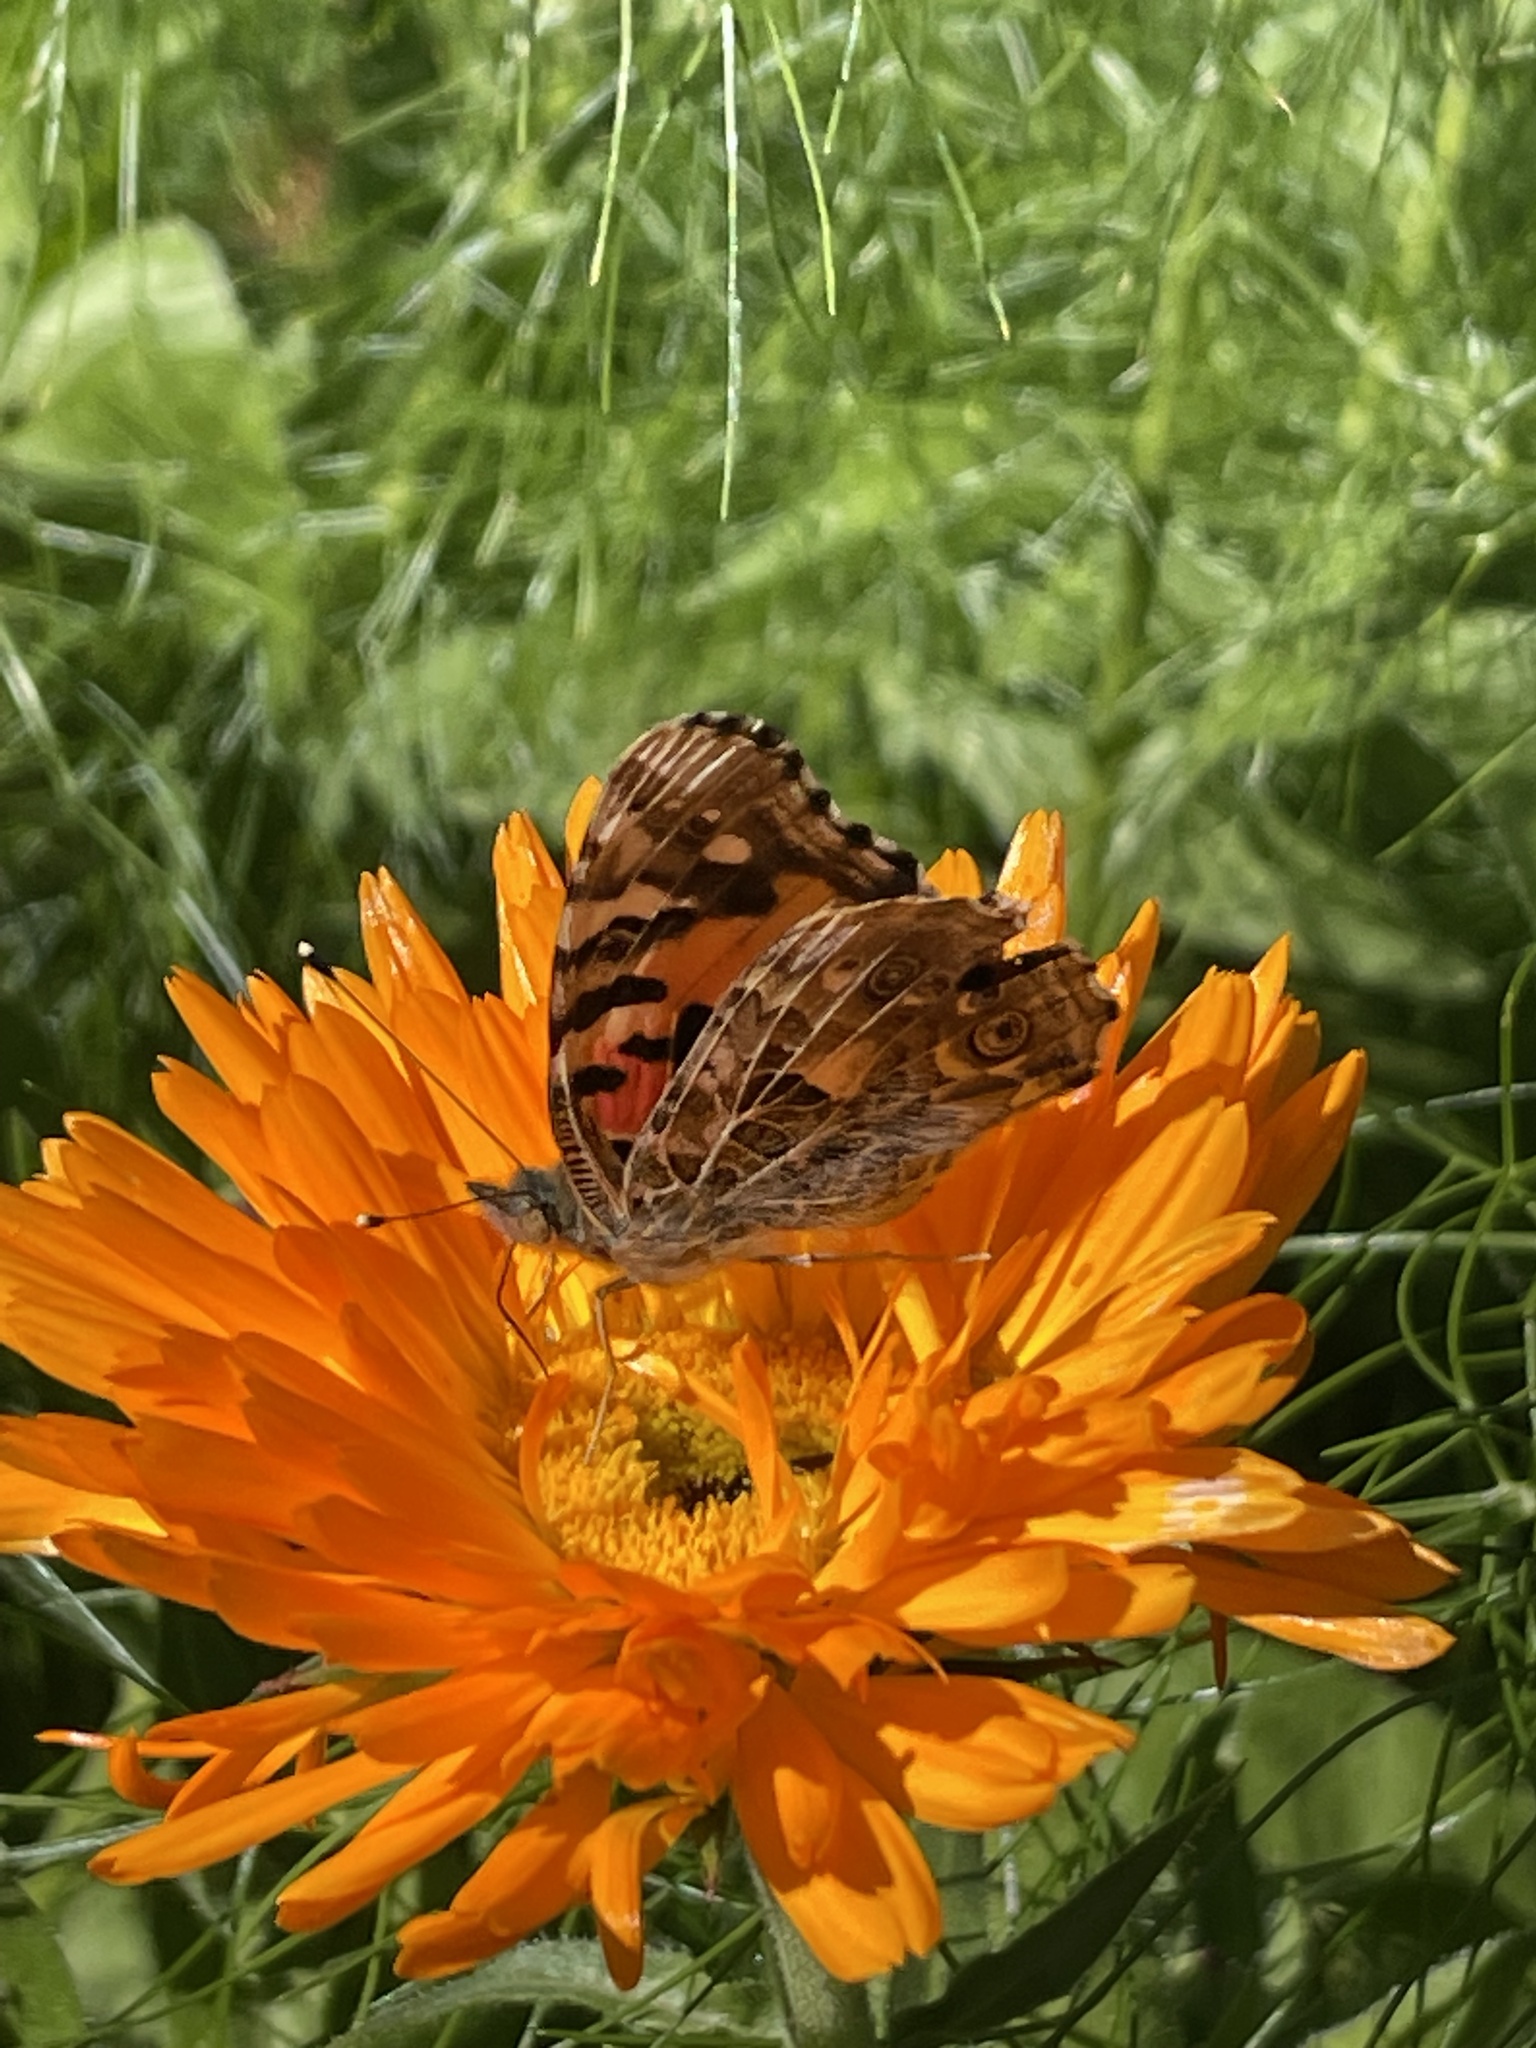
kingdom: Animalia
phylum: Arthropoda
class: Insecta
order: Lepidoptera
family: Nymphalidae
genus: Vanessa
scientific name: Vanessa cardui
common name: Painted lady
